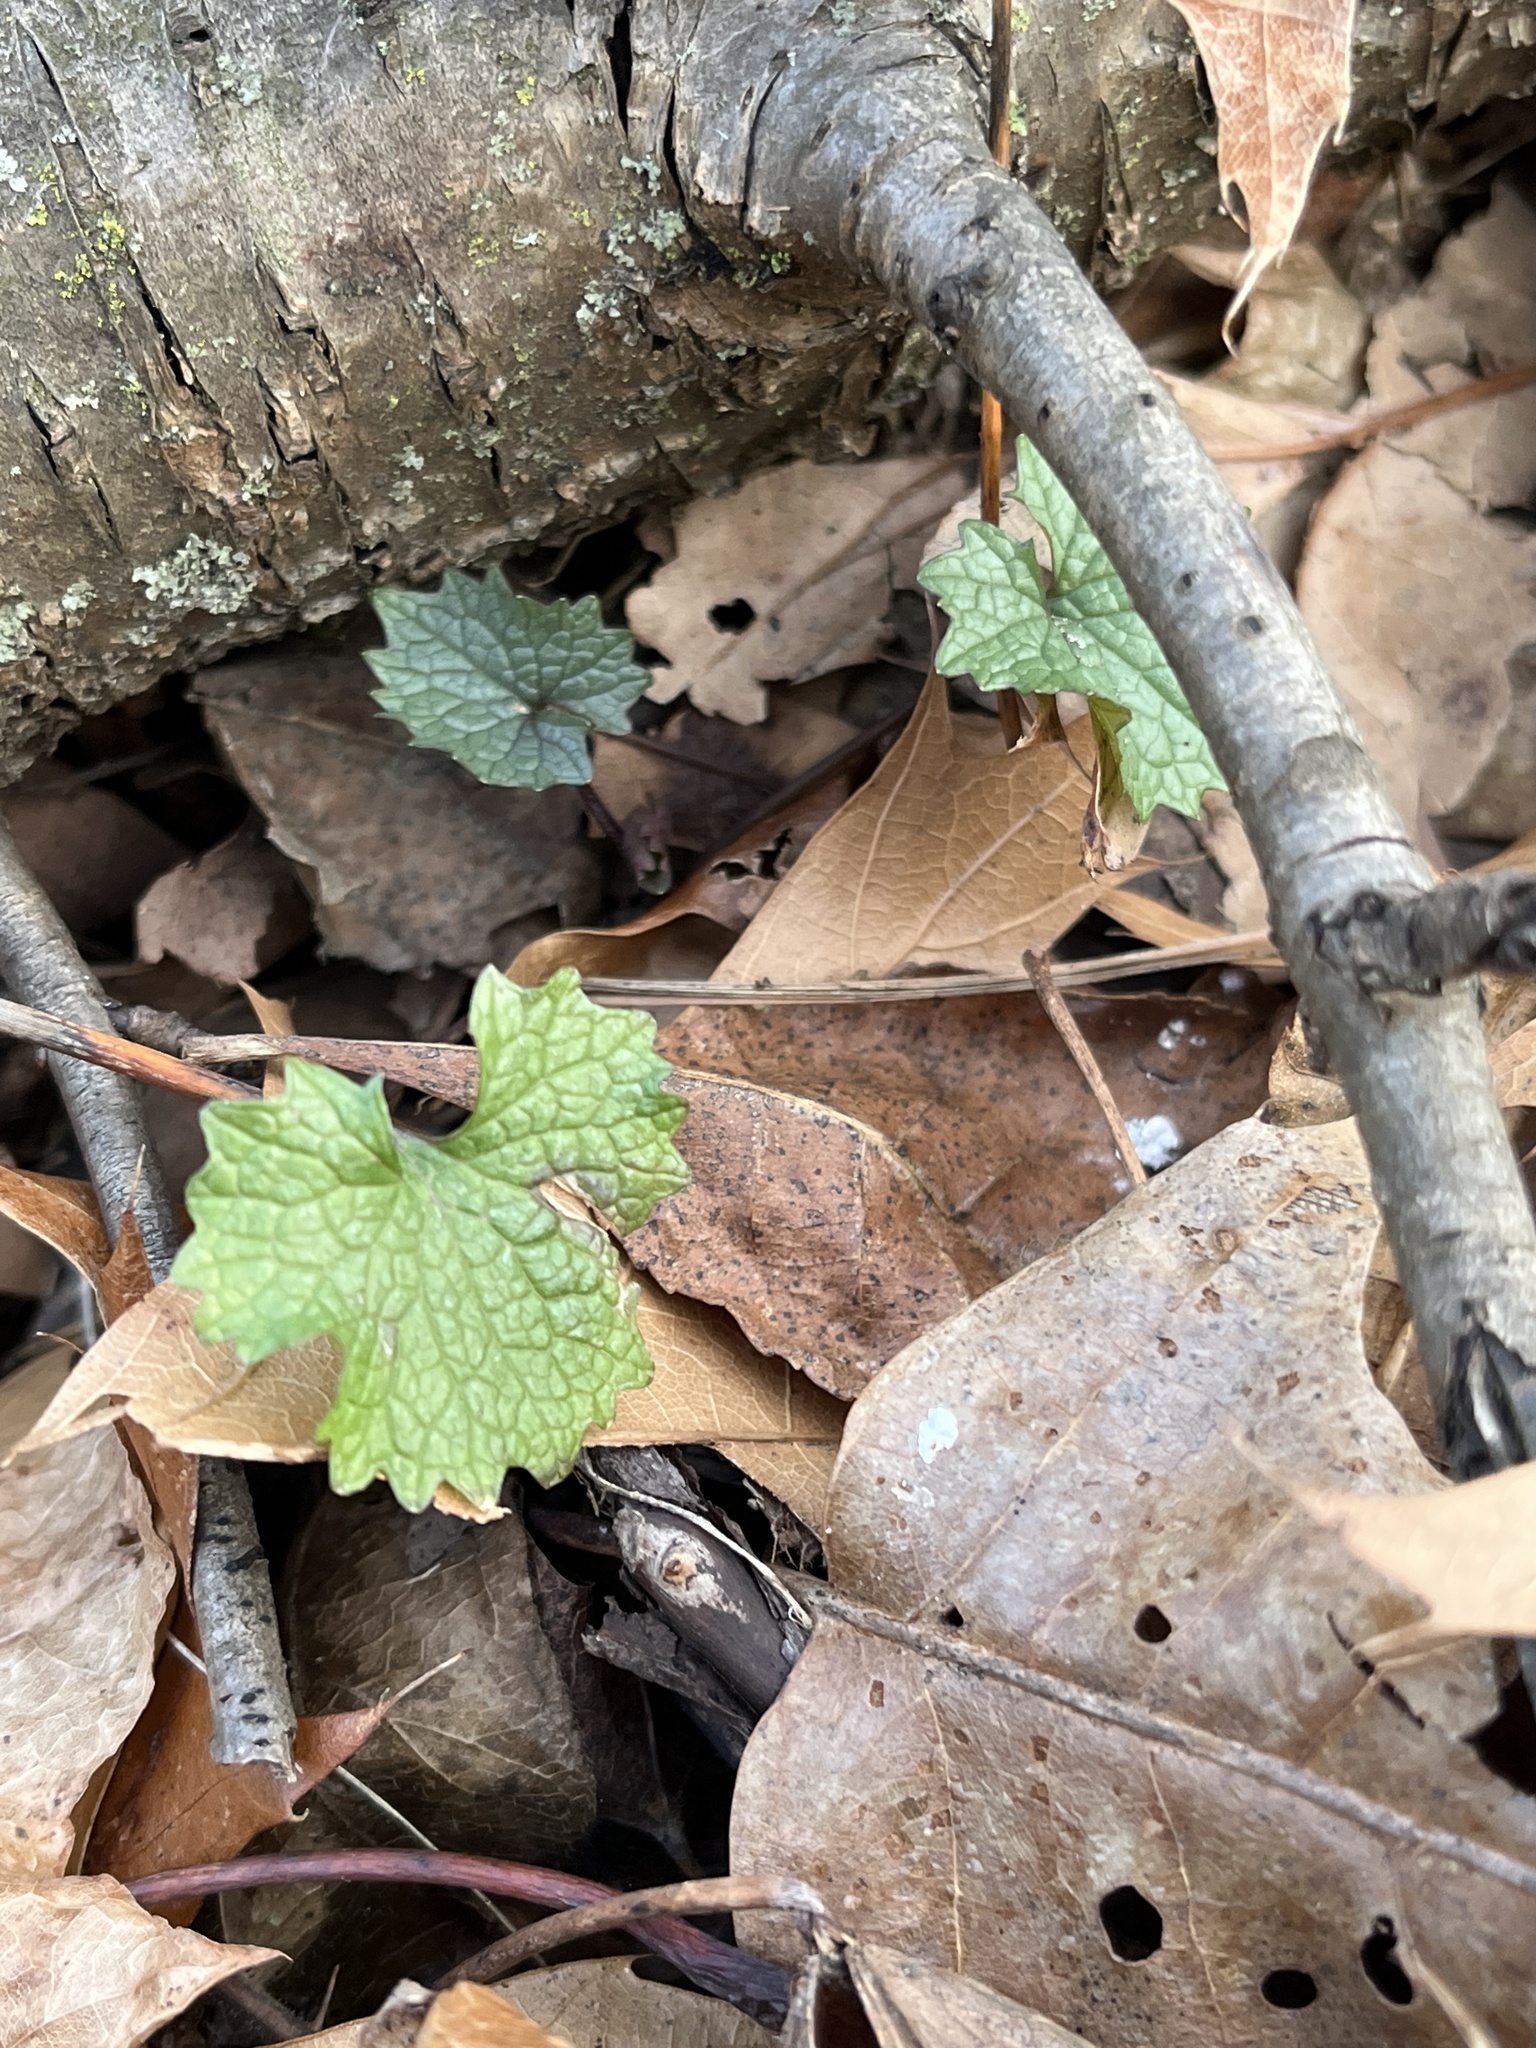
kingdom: Plantae
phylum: Tracheophyta
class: Magnoliopsida
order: Brassicales
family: Brassicaceae
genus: Alliaria
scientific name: Alliaria petiolata
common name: Garlic mustard
